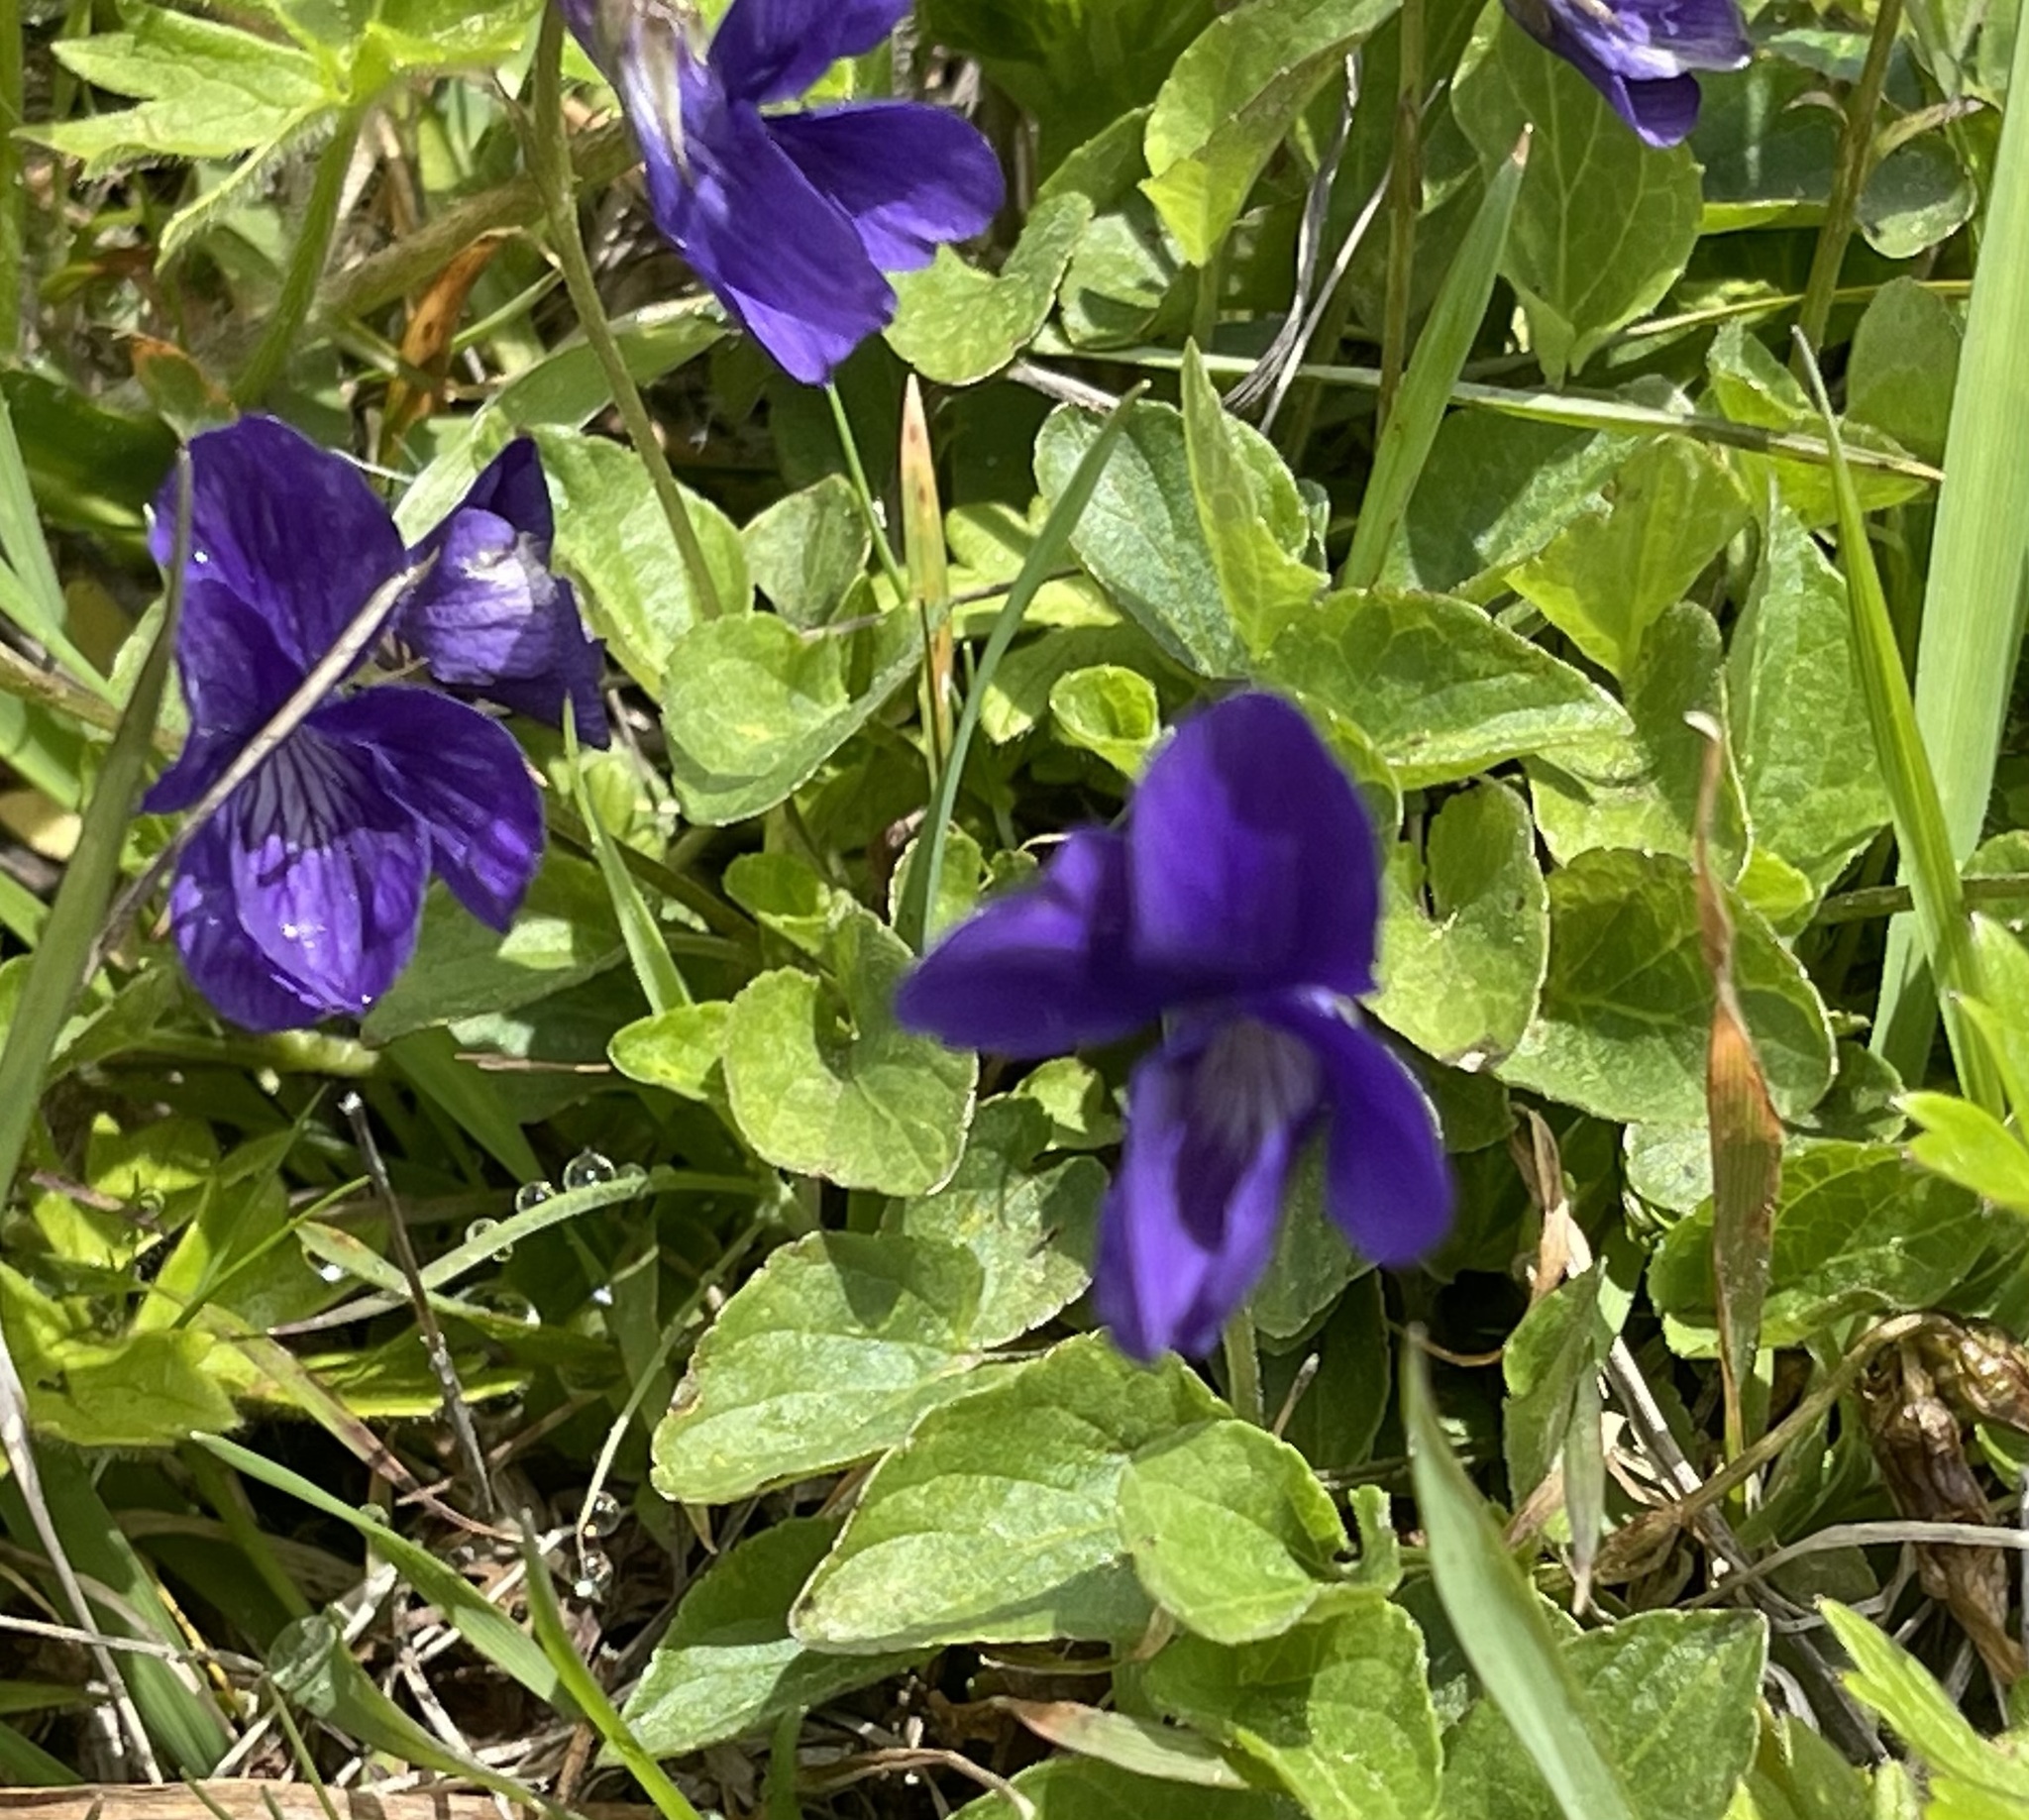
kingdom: Plantae
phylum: Tracheophyta
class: Magnoliopsida
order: Malpighiales
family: Violaceae
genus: Viola
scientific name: Viola adunca
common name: Sand violet
